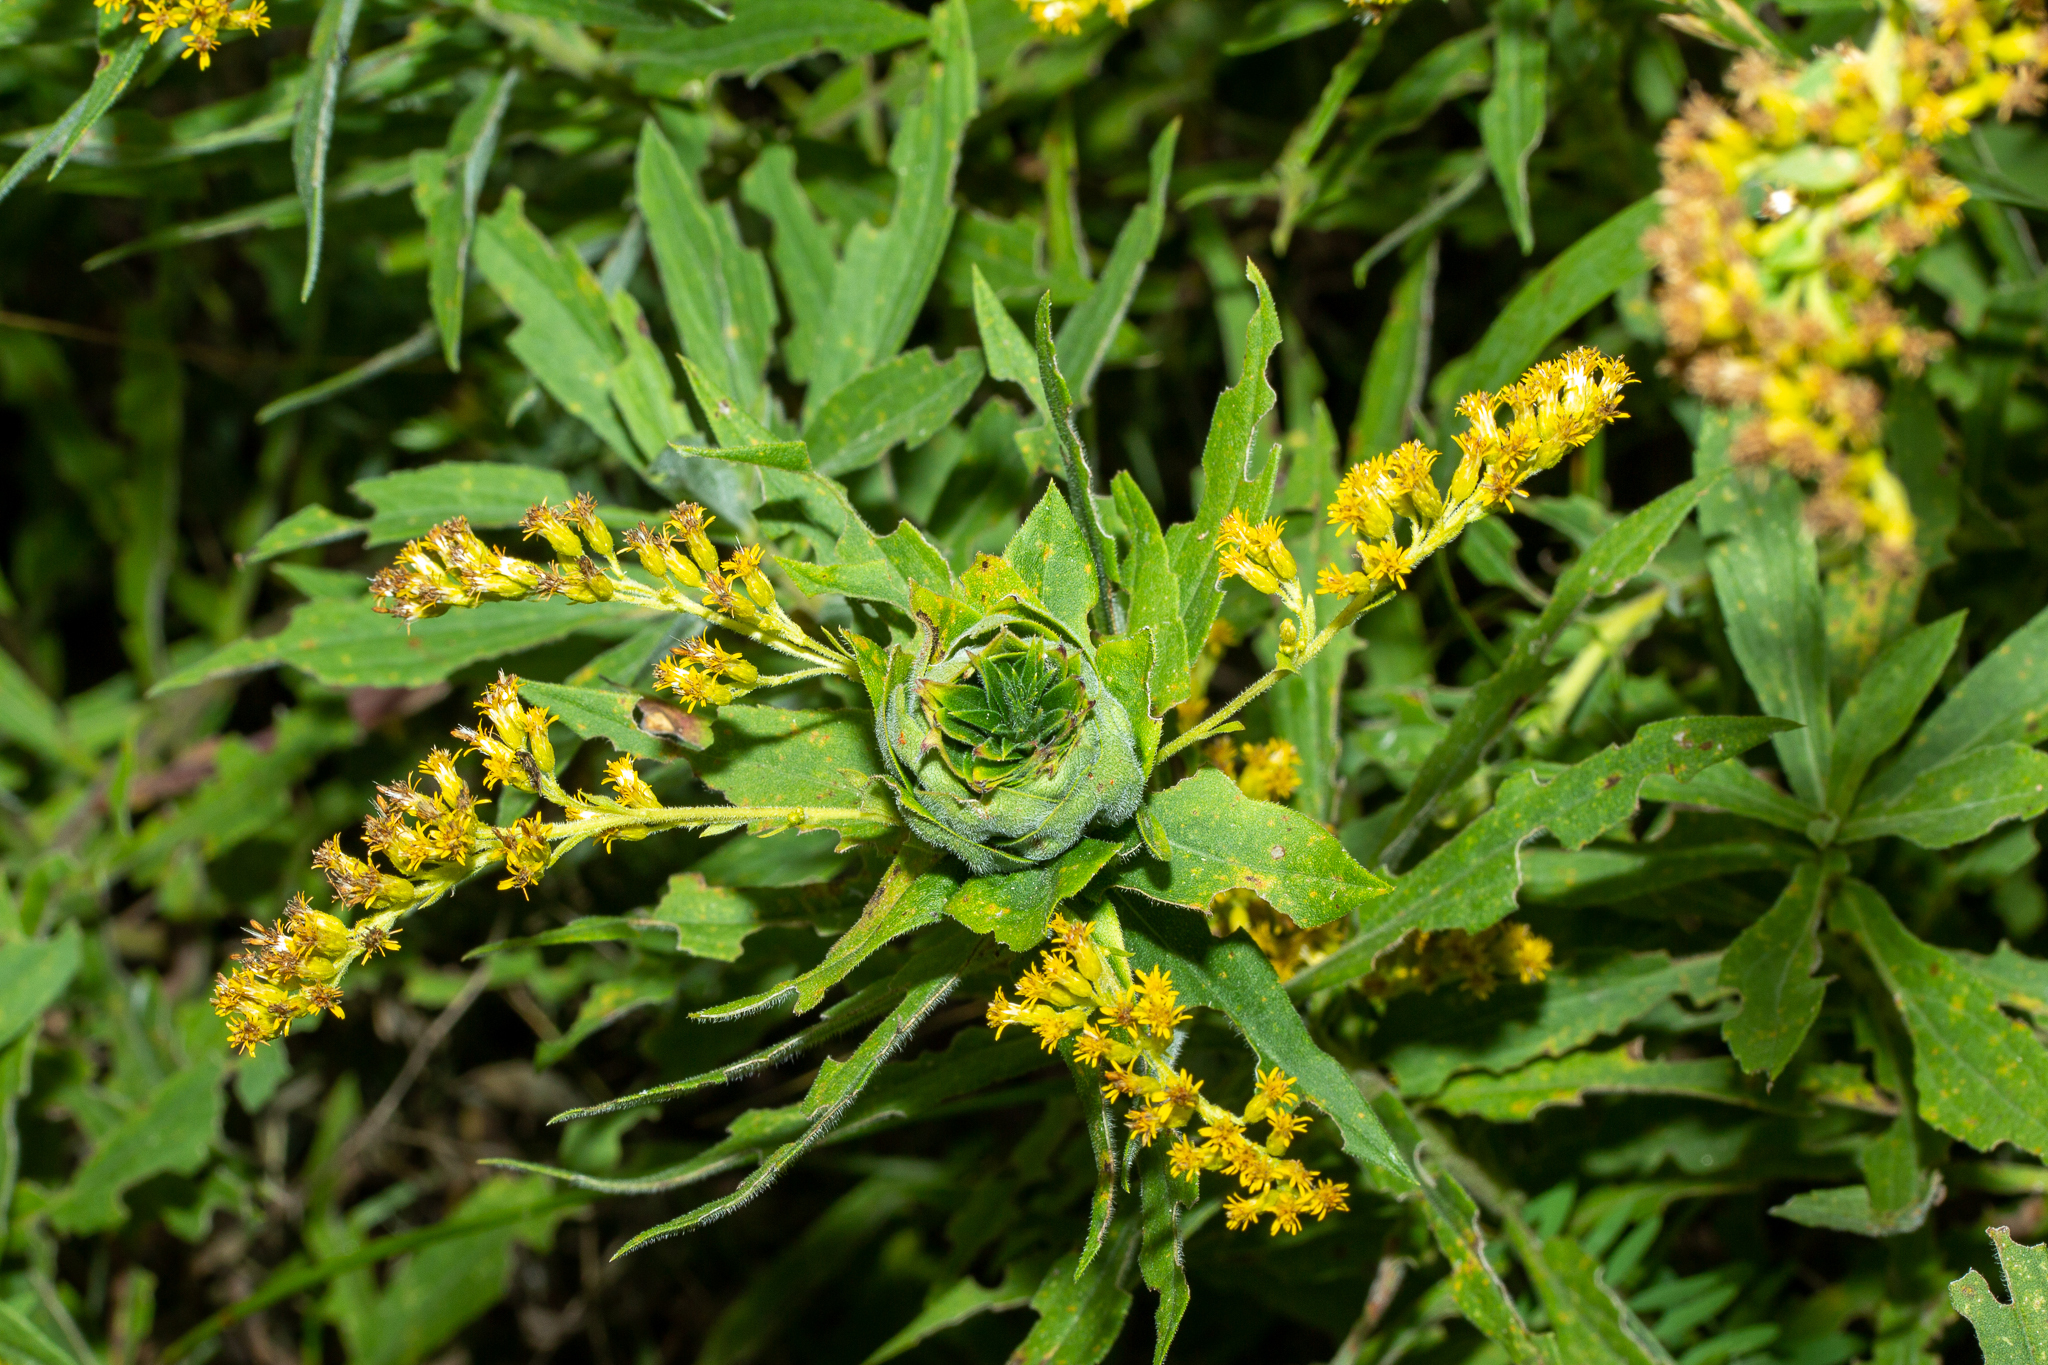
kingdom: Animalia
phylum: Arthropoda
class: Insecta
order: Diptera
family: Cecidomyiidae
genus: Rhopalomyia
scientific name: Rhopalomyia solidaginis
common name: Goldenrod bunch gall midge
